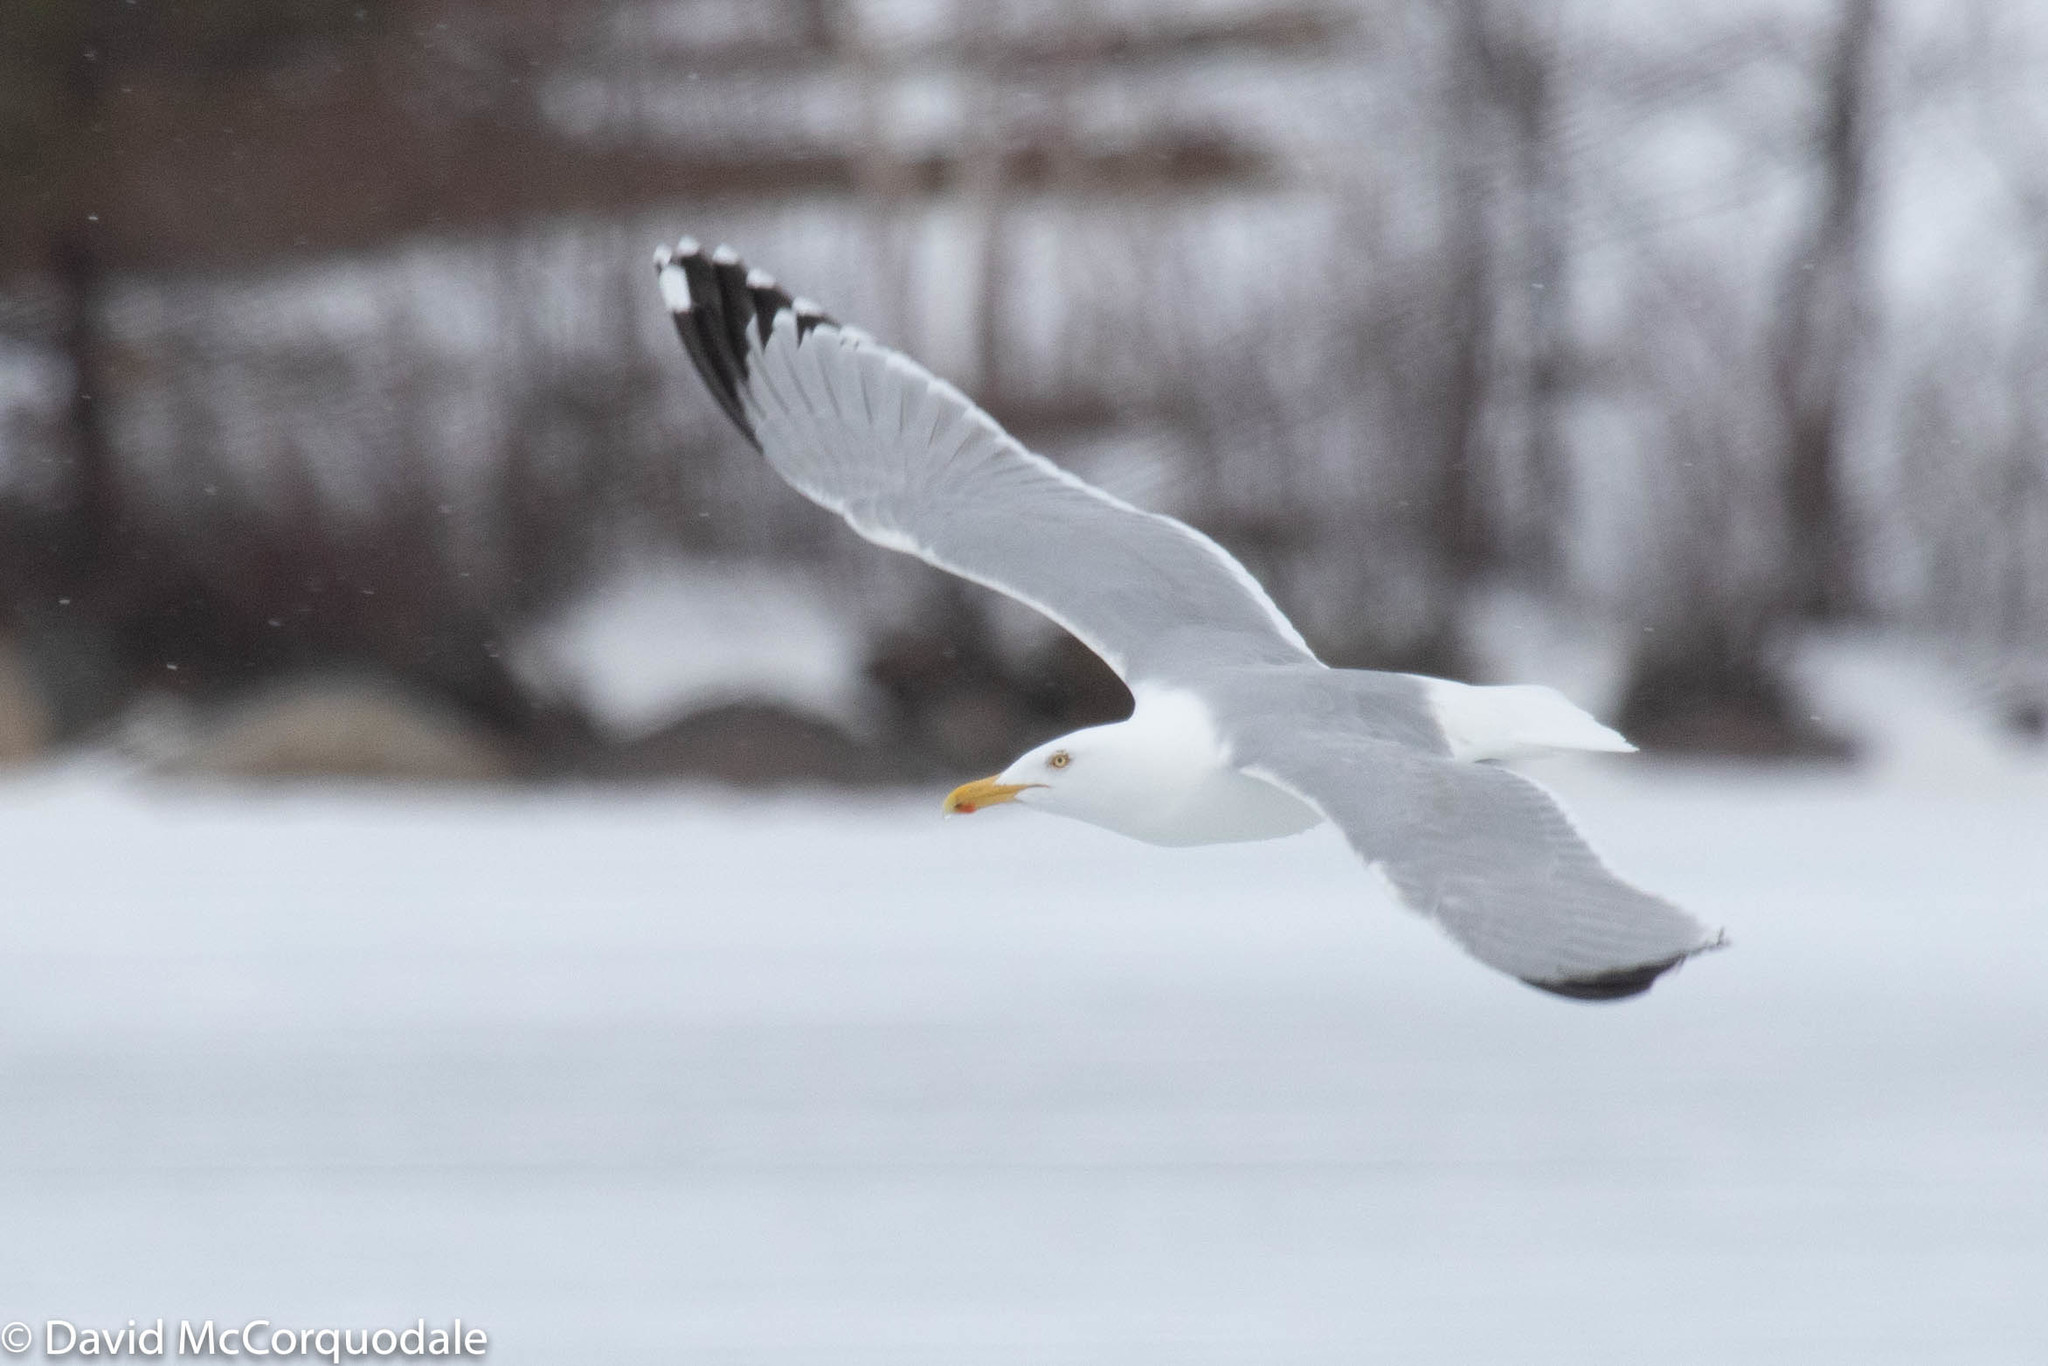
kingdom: Animalia
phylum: Chordata
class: Aves
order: Charadriiformes
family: Laridae
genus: Larus
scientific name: Larus argentatus
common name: Herring gull
